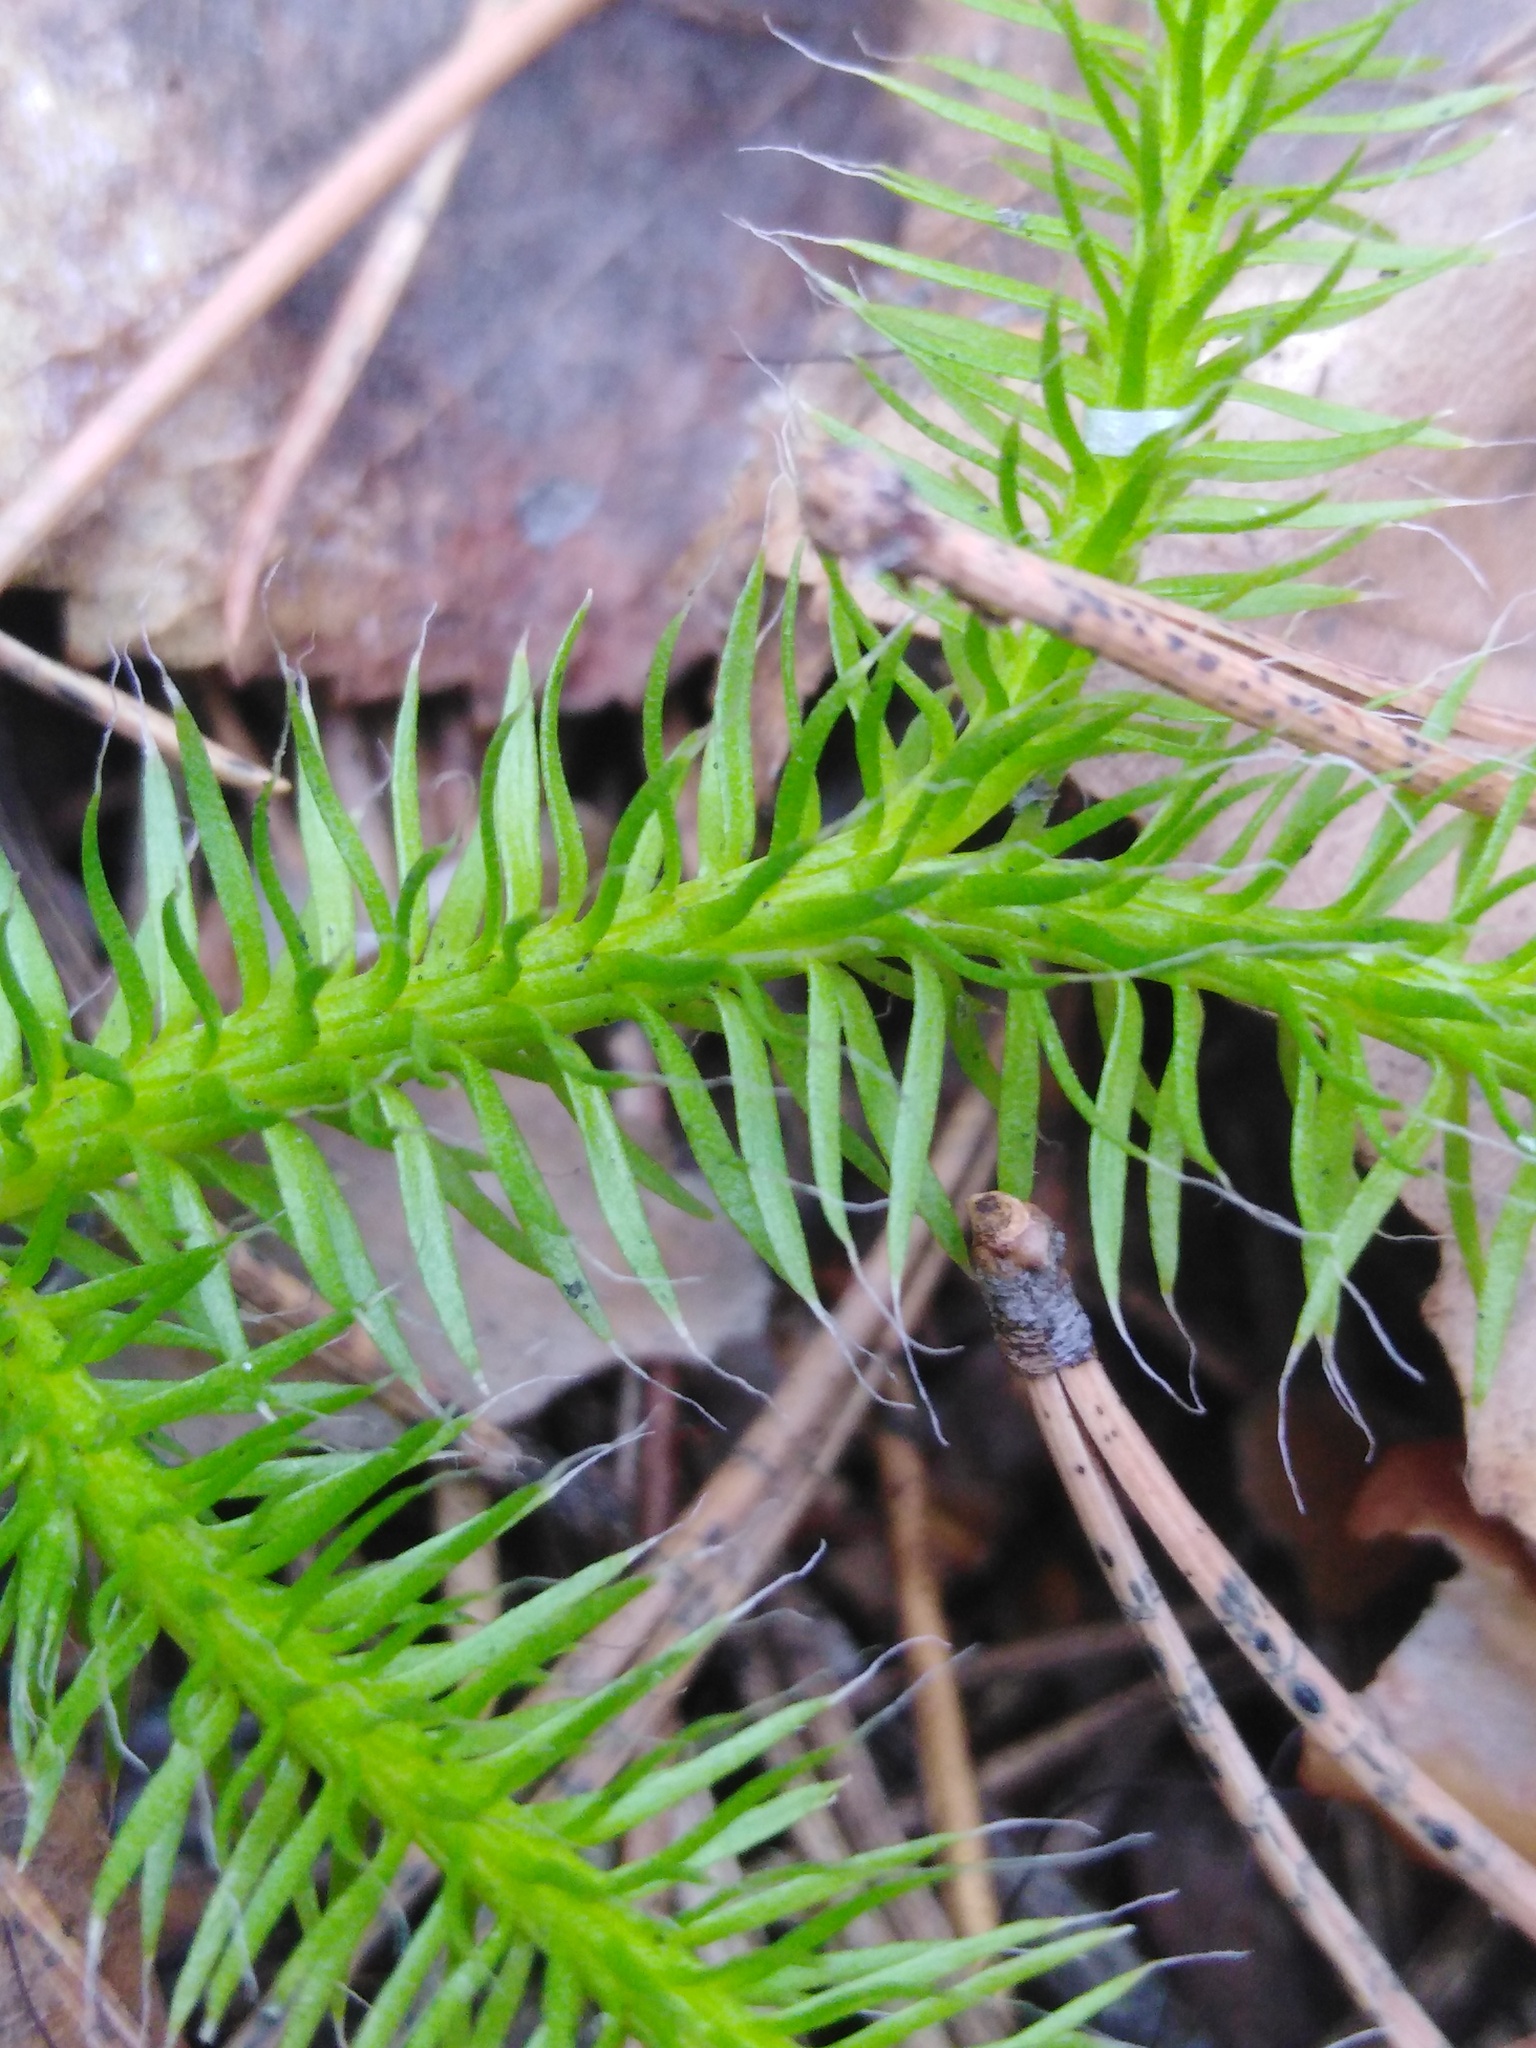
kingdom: Plantae
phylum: Tracheophyta
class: Lycopodiopsida
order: Lycopodiales
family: Lycopodiaceae
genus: Lycopodium
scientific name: Lycopodium clavatum
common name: Stag's-horn clubmoss
